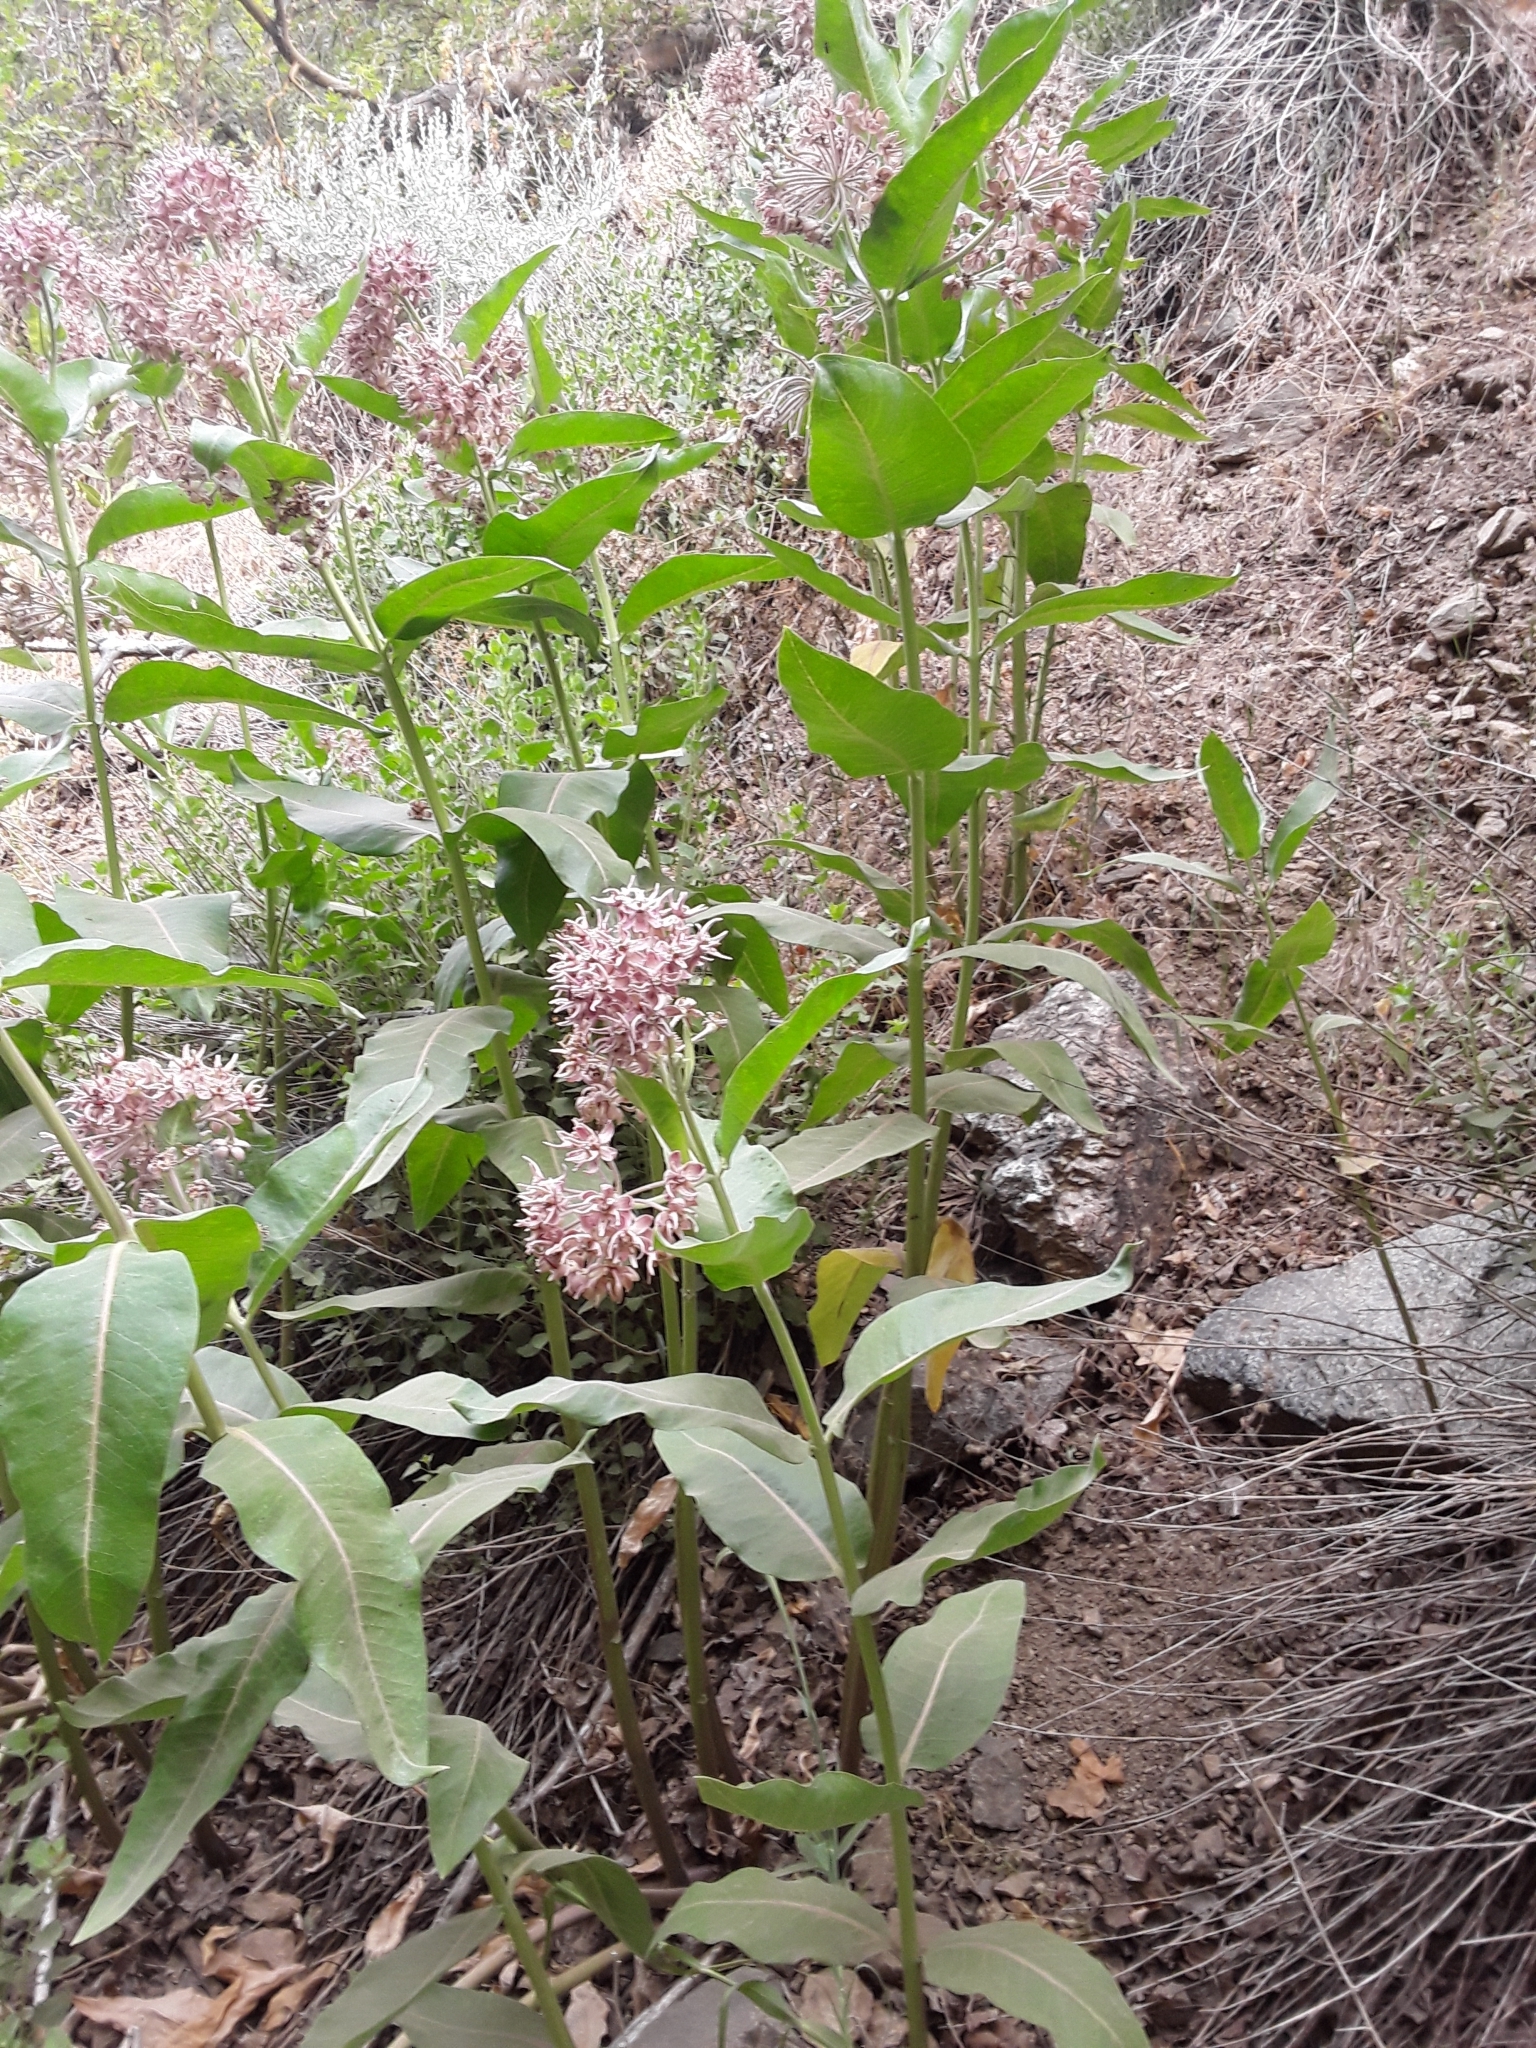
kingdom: Plantae
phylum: Tracheophyta
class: Magnoliopsida
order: Gentianales
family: Apocynaceae
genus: Asclepias
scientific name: Asclepias speciosa
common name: Showy milkweed
